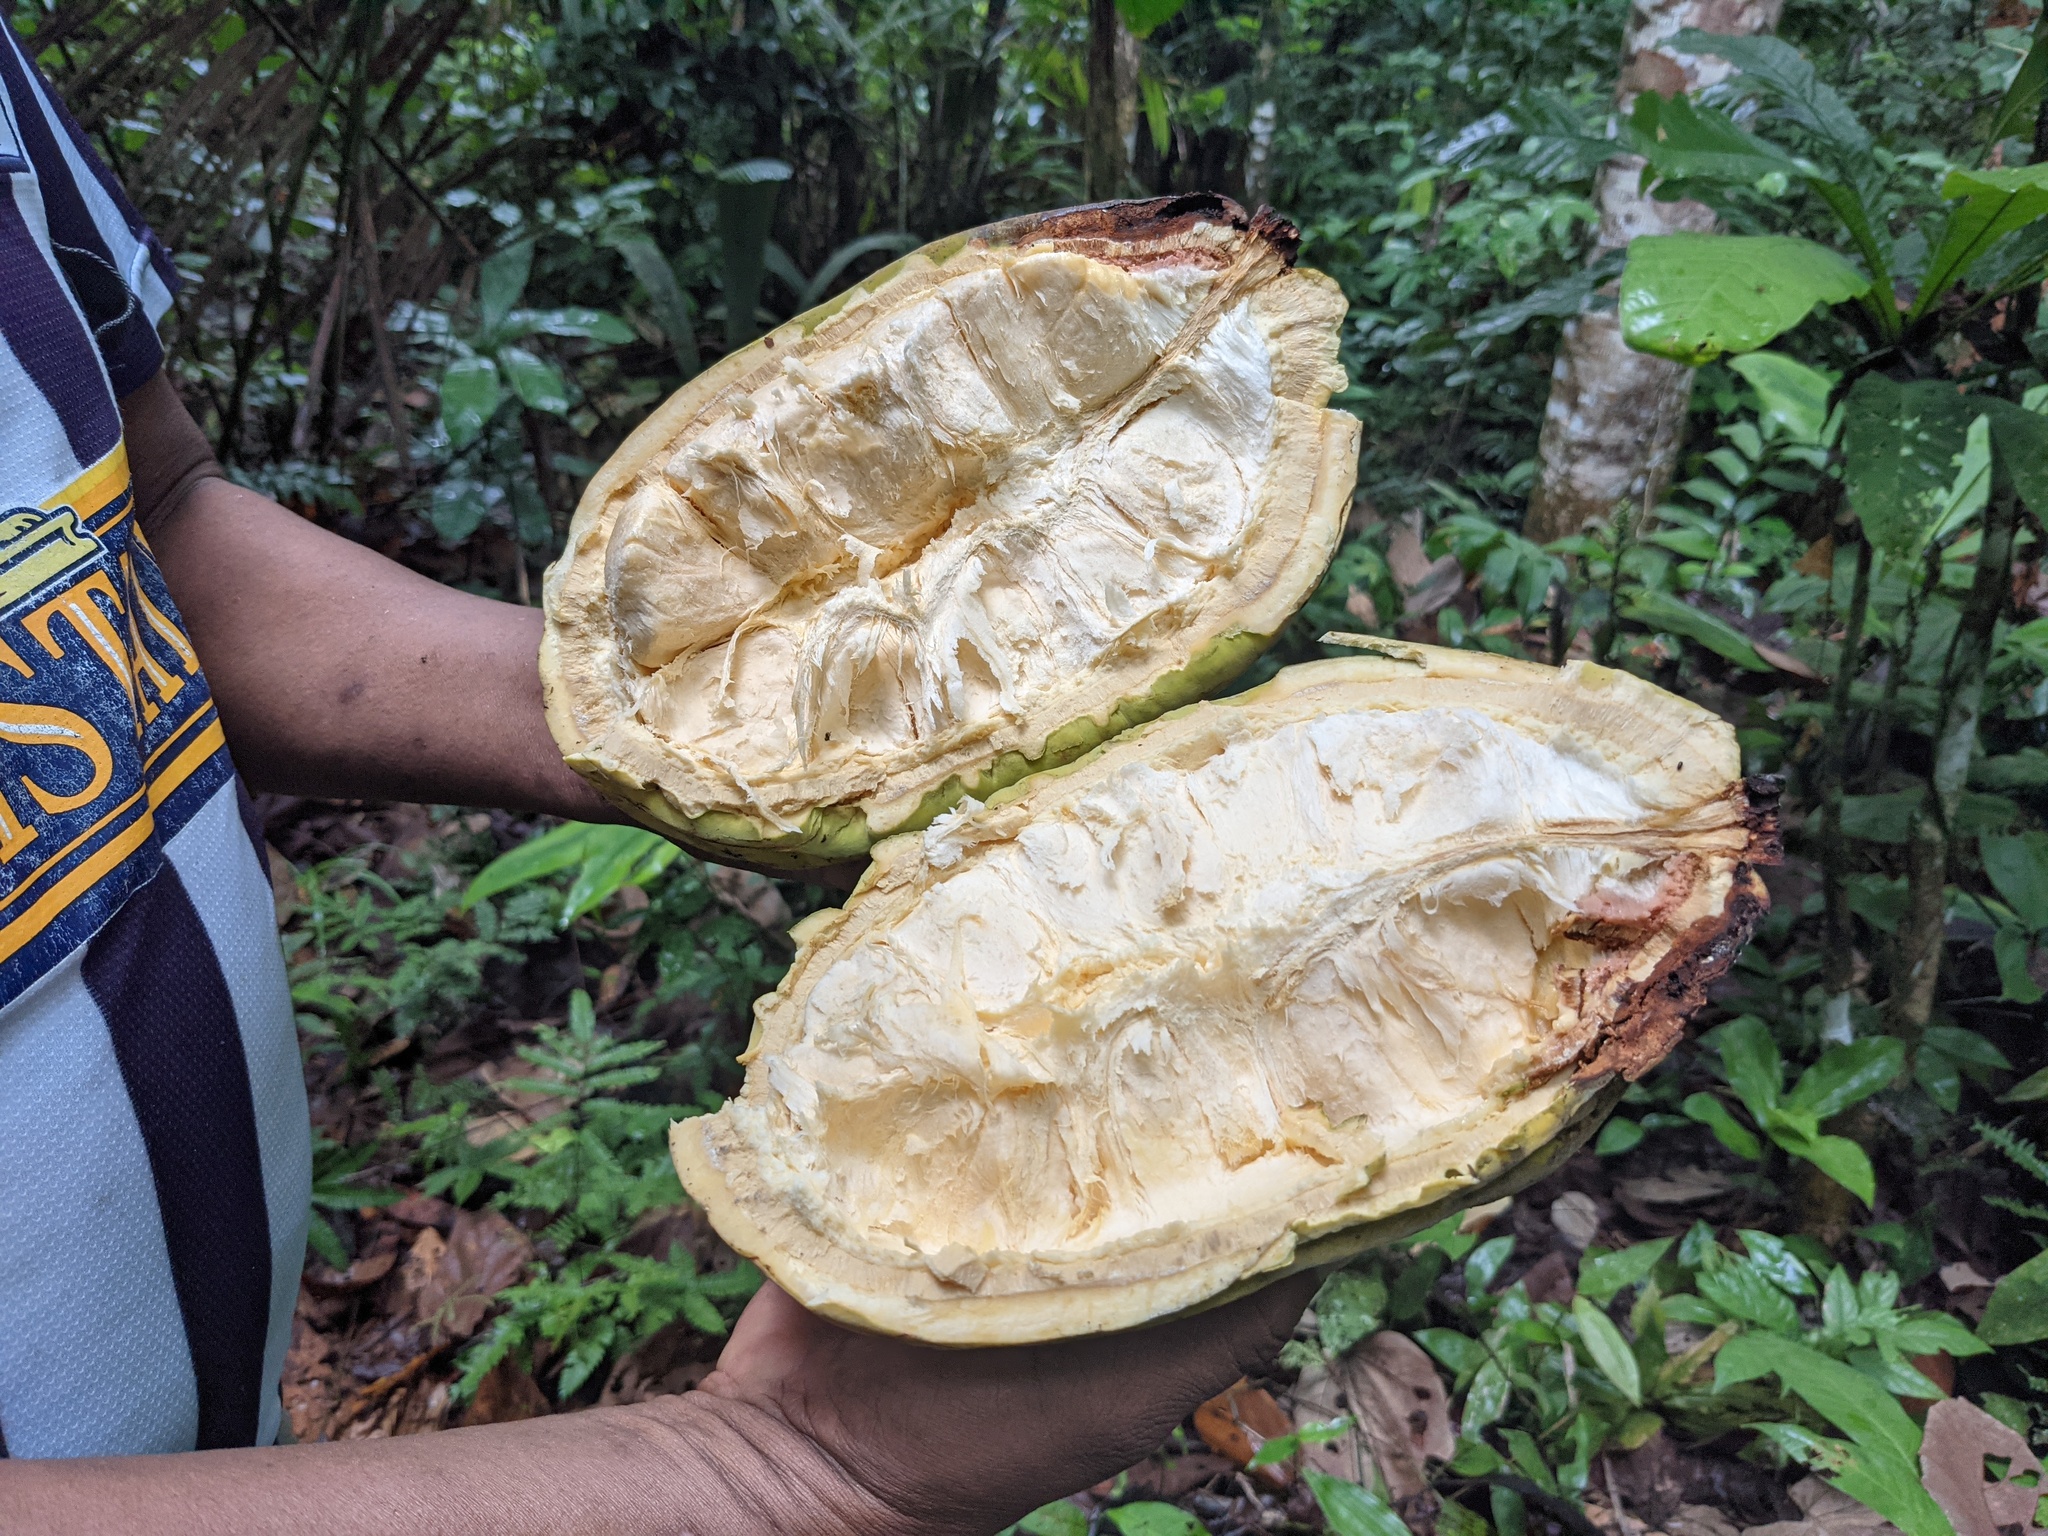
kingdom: Plantae
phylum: Tracheophyta
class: Magnoliopsida
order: Malvales
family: Malvaceae
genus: Theobroma
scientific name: Theobroma bicolor
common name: Macambo tree
